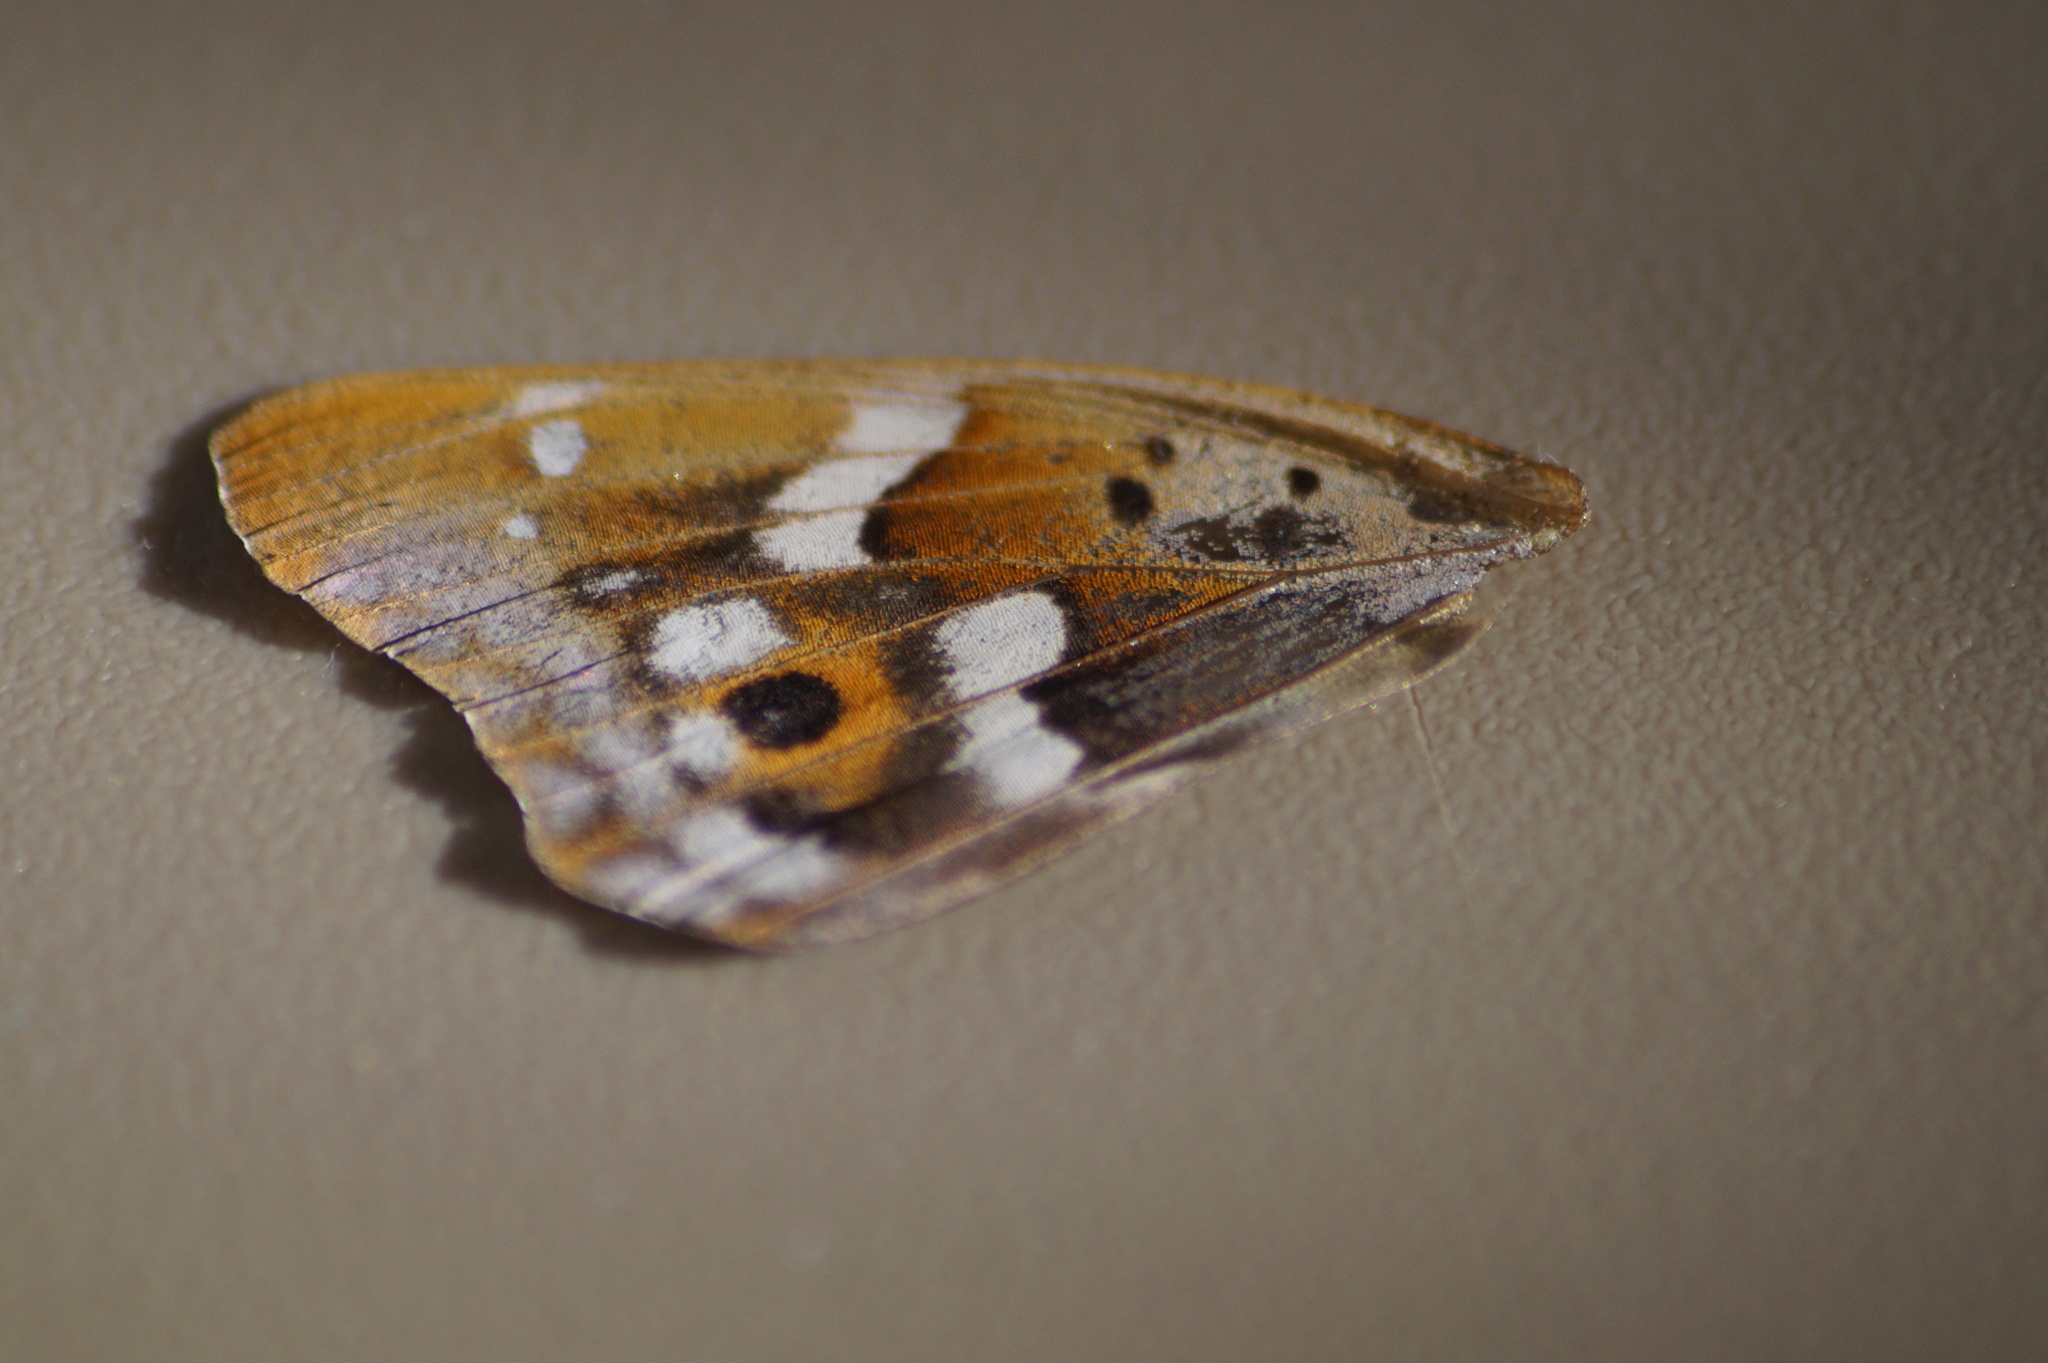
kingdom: Animalia
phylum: Arthropoda
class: Insecta
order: Lepidoptera
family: Nymphalidae
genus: Apatura
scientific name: Apatura ilia
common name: Lesser purple emperor
